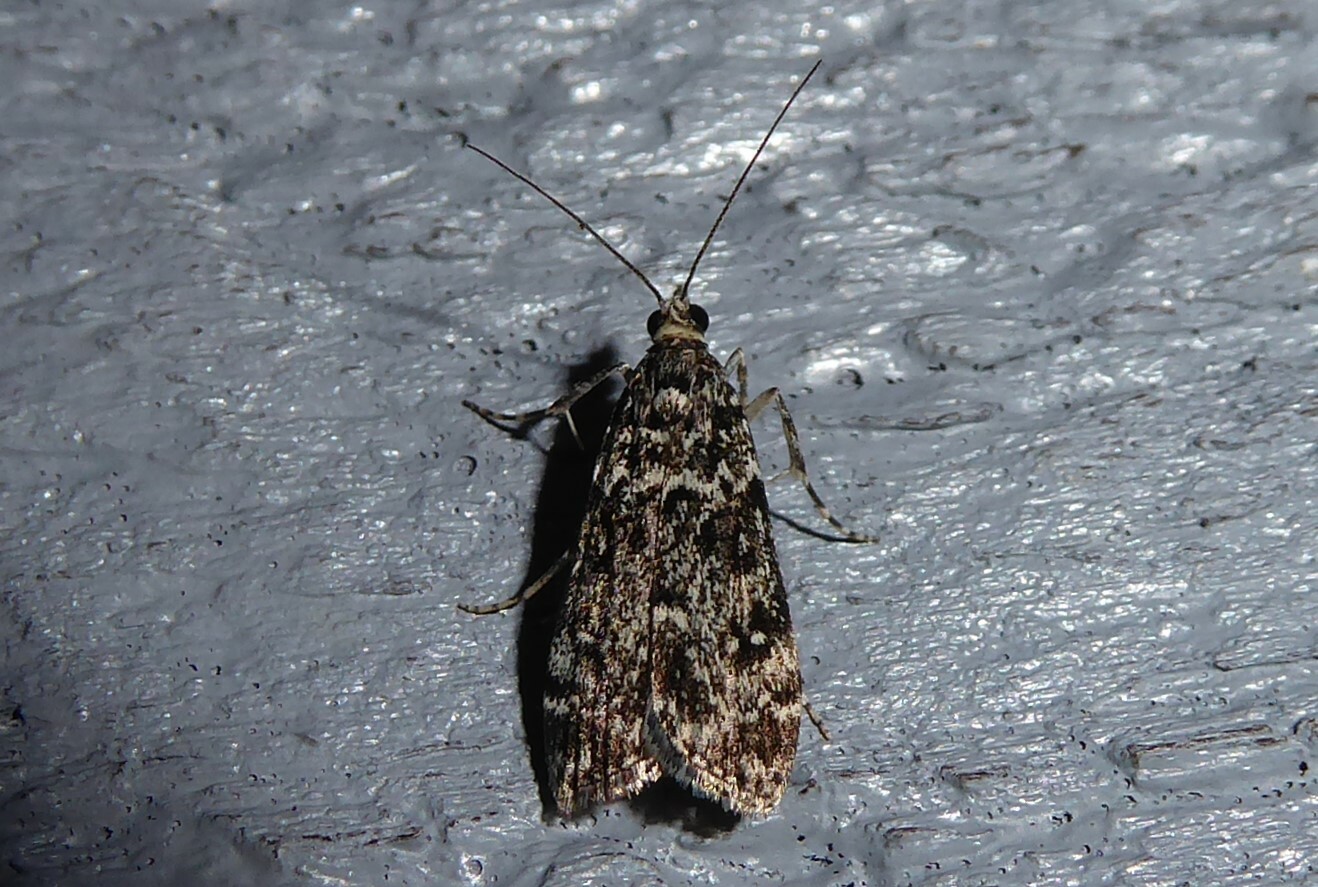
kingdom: Animalia
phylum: Arthropoda
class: Insecta
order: Lepidoptera
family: Crambidae
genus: Eudonia
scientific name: Eudonia philerga
